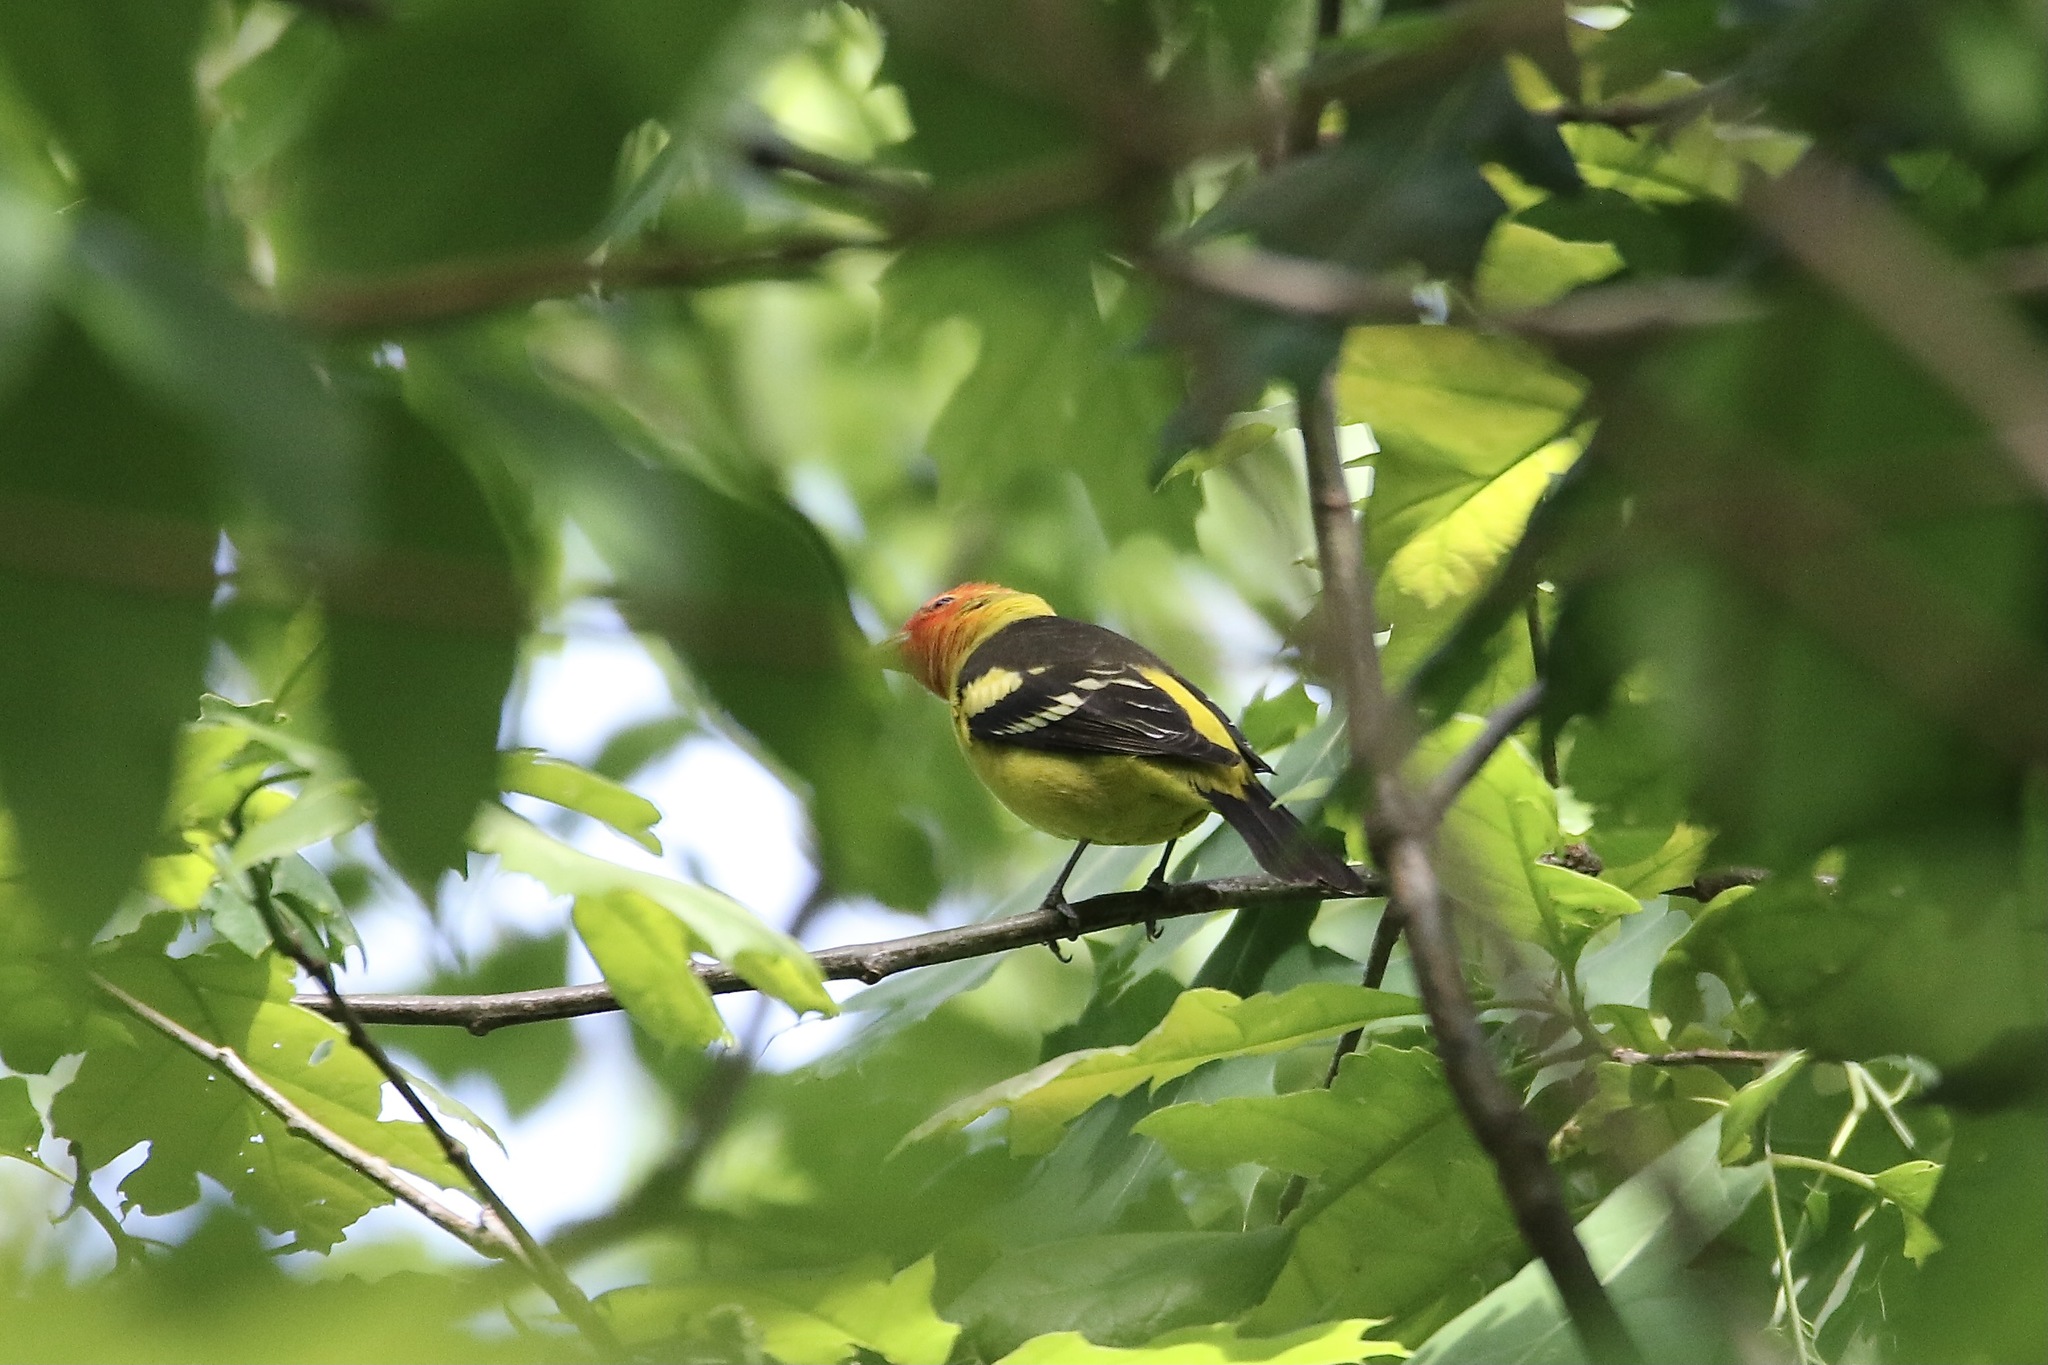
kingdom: Animalia
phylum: Chordata
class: Aves
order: Passeriformes
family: Cardinalidae
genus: Piranga
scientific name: Piranga ludoviciana
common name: Western tanager
